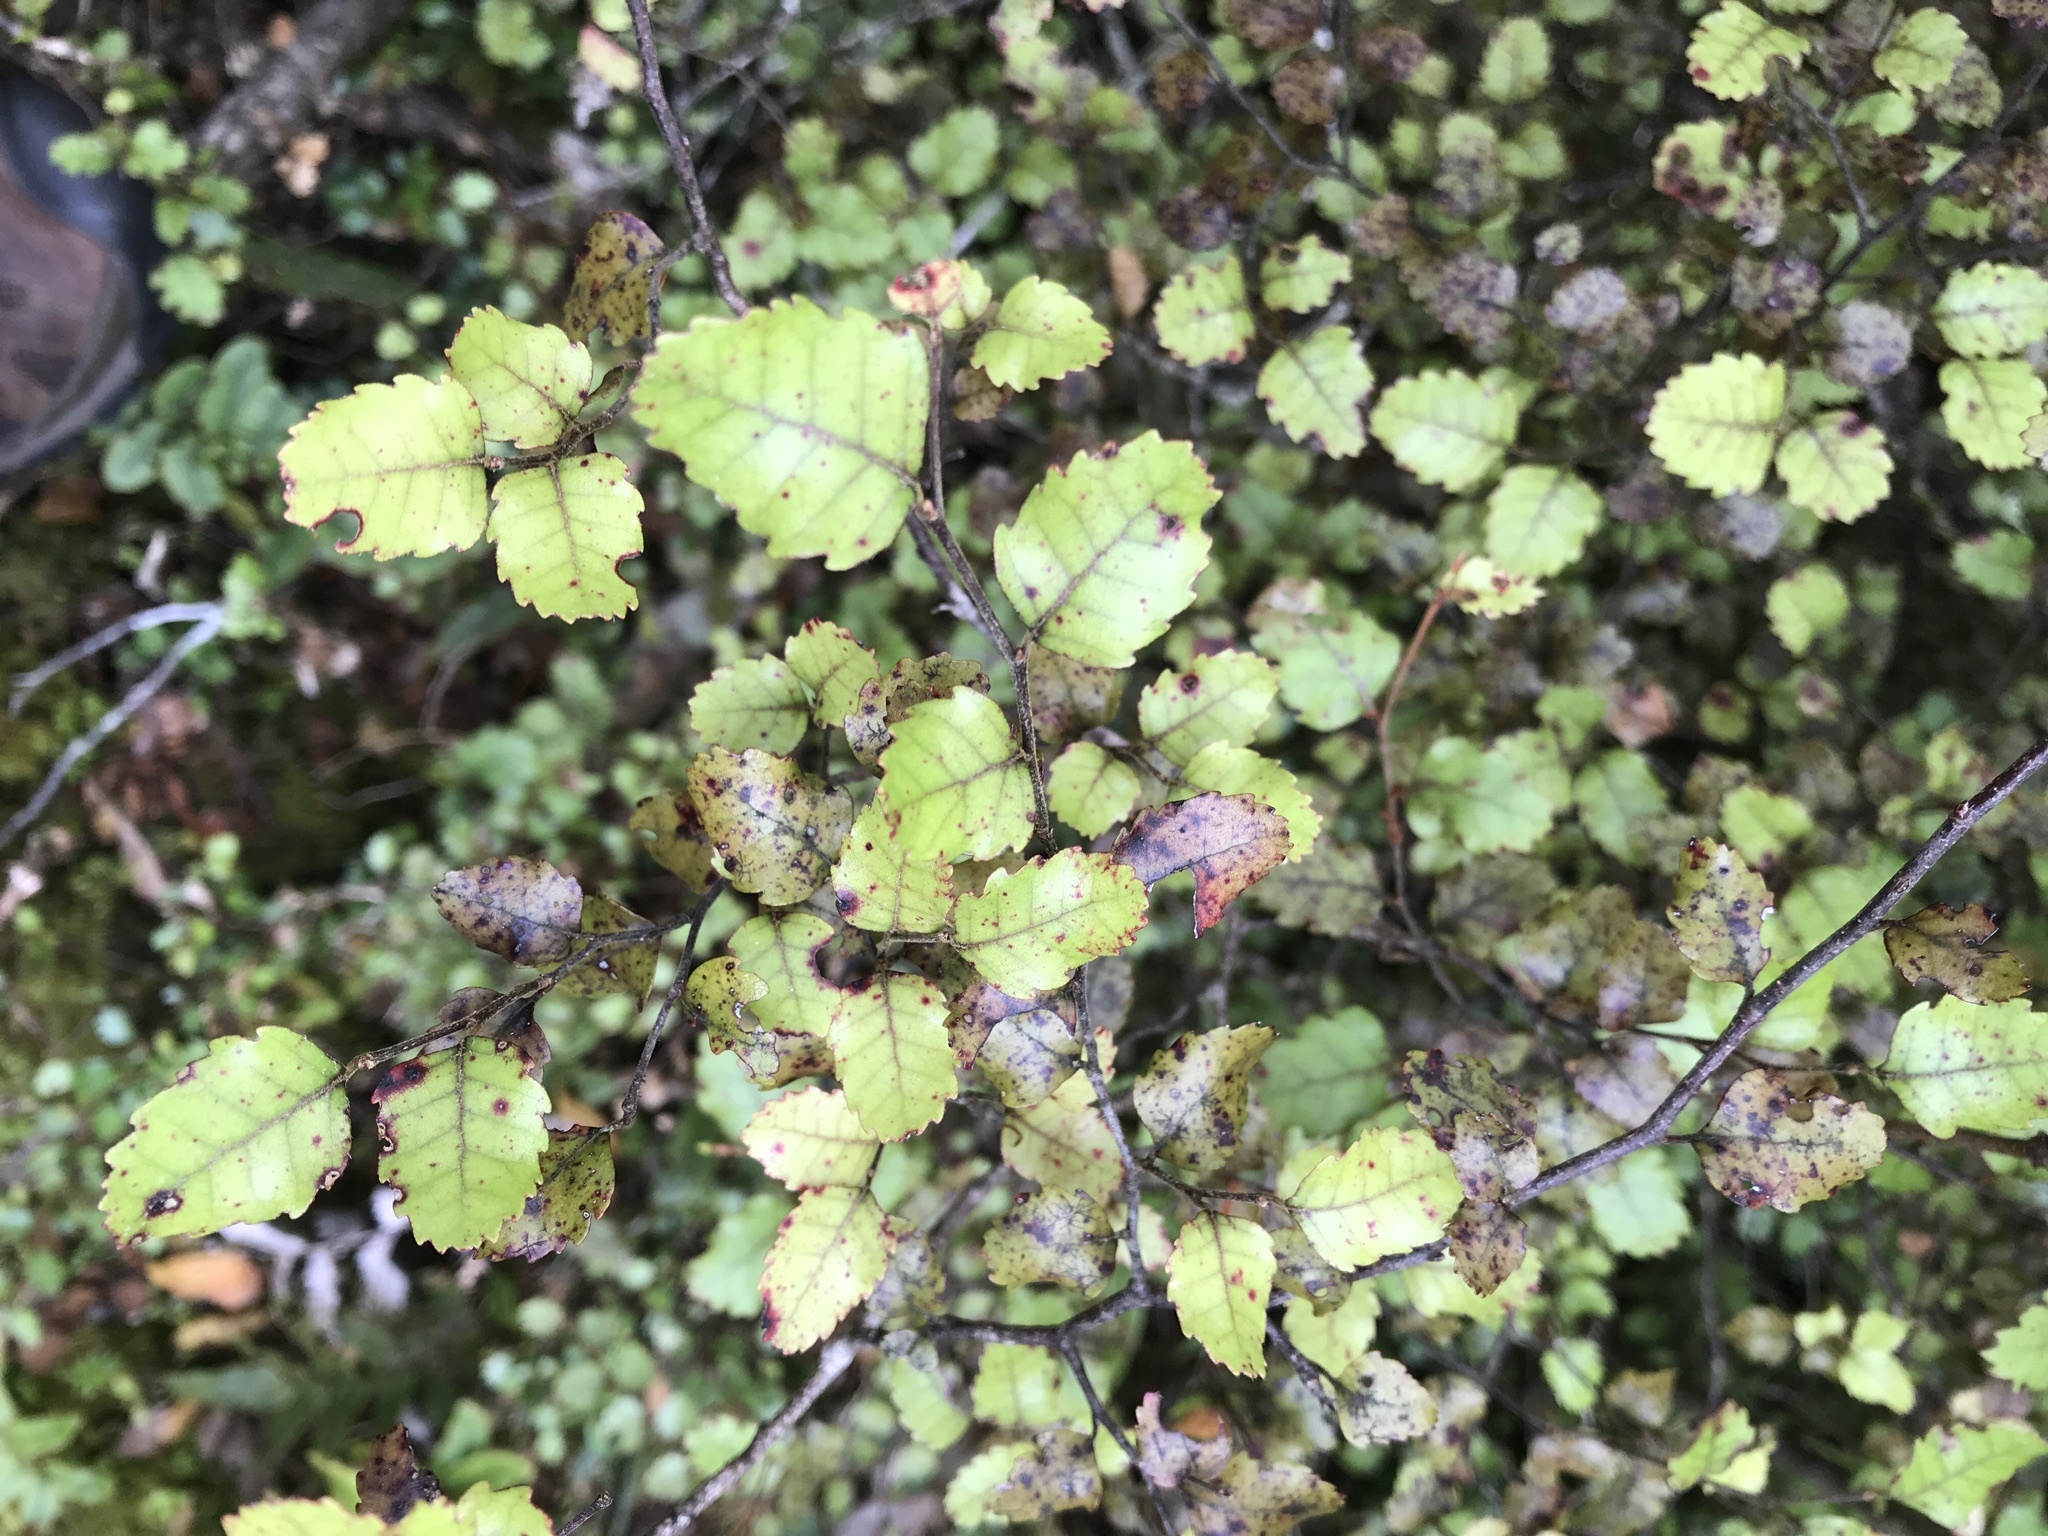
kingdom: Plantae
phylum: Tracheophyta
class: Magnoliopsida
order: Fagales
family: Nothofagaceae
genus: Nothofagus
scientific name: Nothofagus fusca
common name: Red beech
